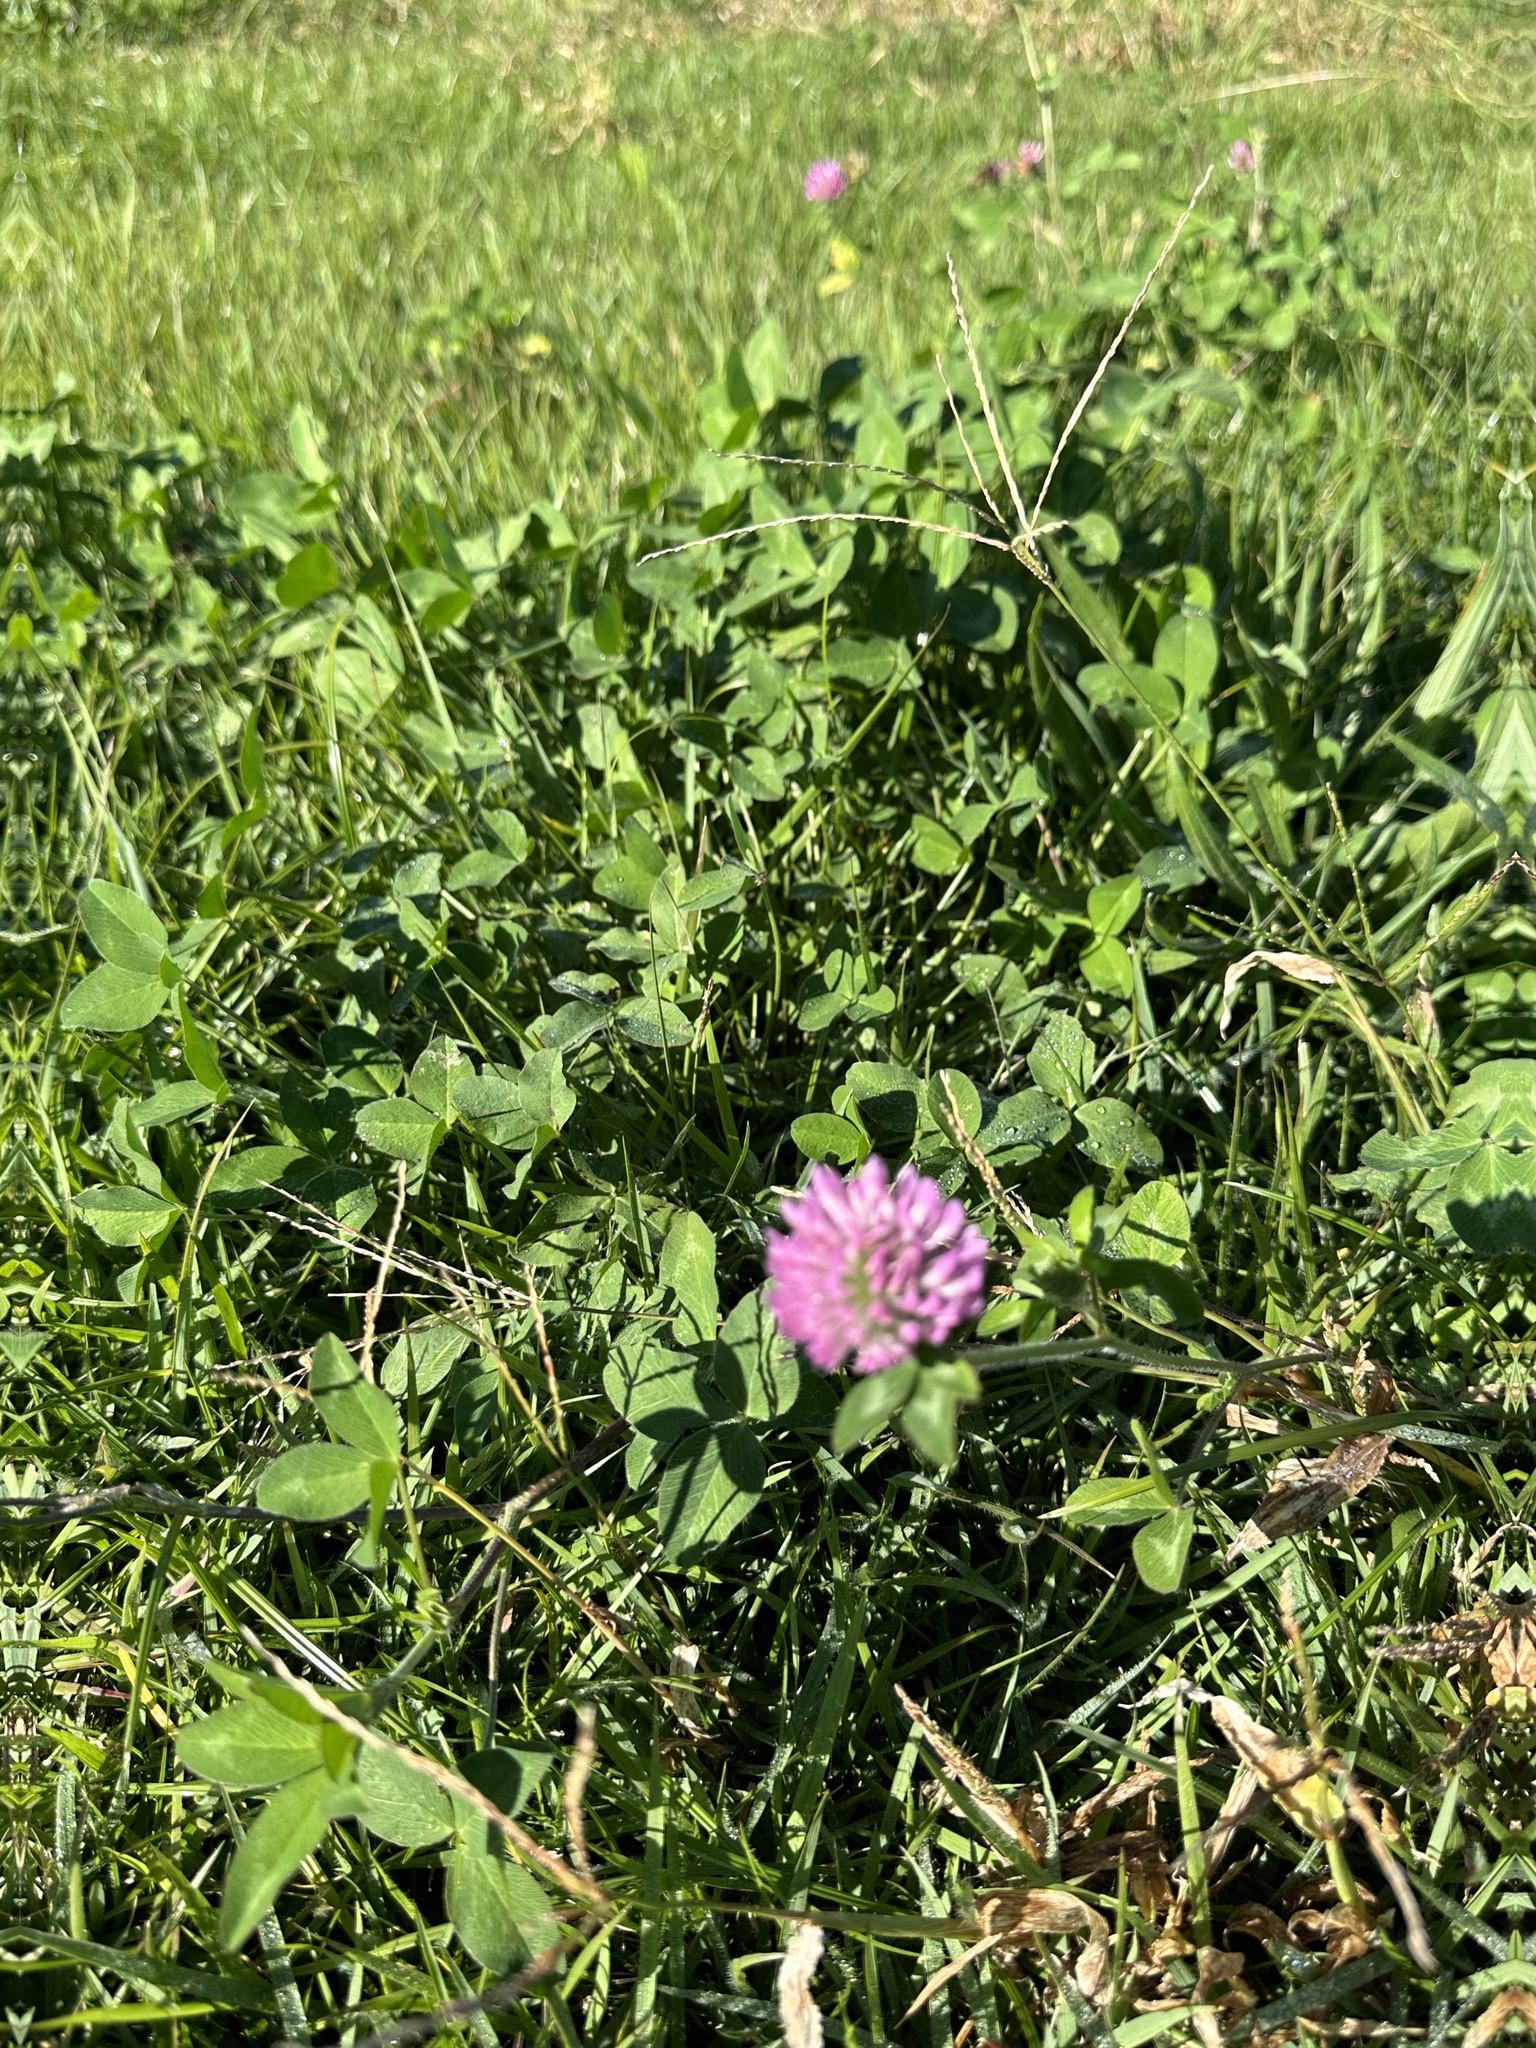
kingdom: Plantae
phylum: Tracheophyta
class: Magnoliopsida
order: Fabales
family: Fabaceae
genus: Trifolium
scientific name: Trifolium pratense
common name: Red clover
